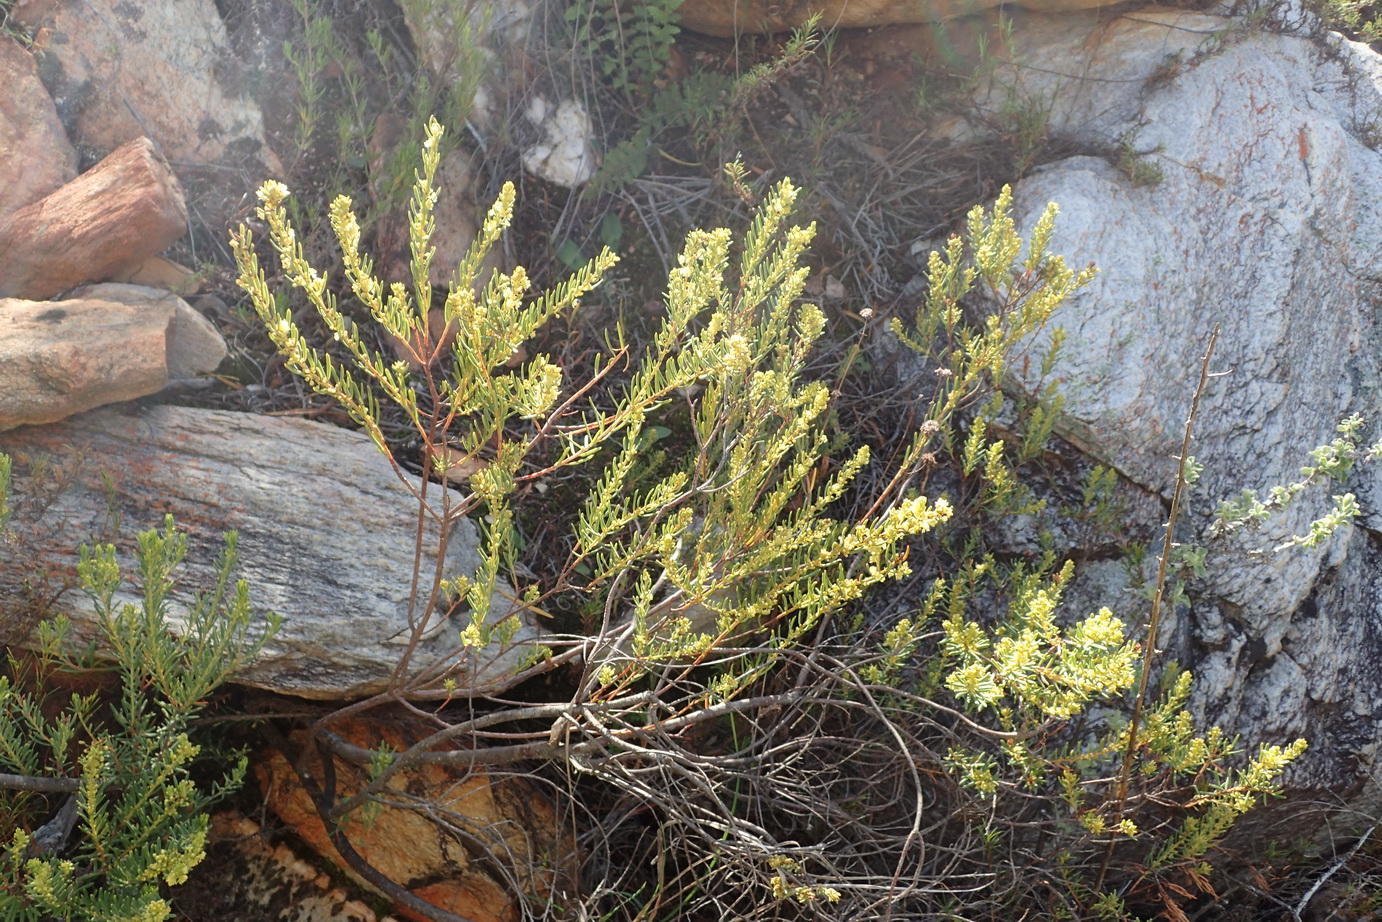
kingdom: Plantae
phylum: Tracheophyta
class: Magnoliopsida
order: Malpighiales
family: Peraceae
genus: Clutia
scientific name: Clutia polifolia
